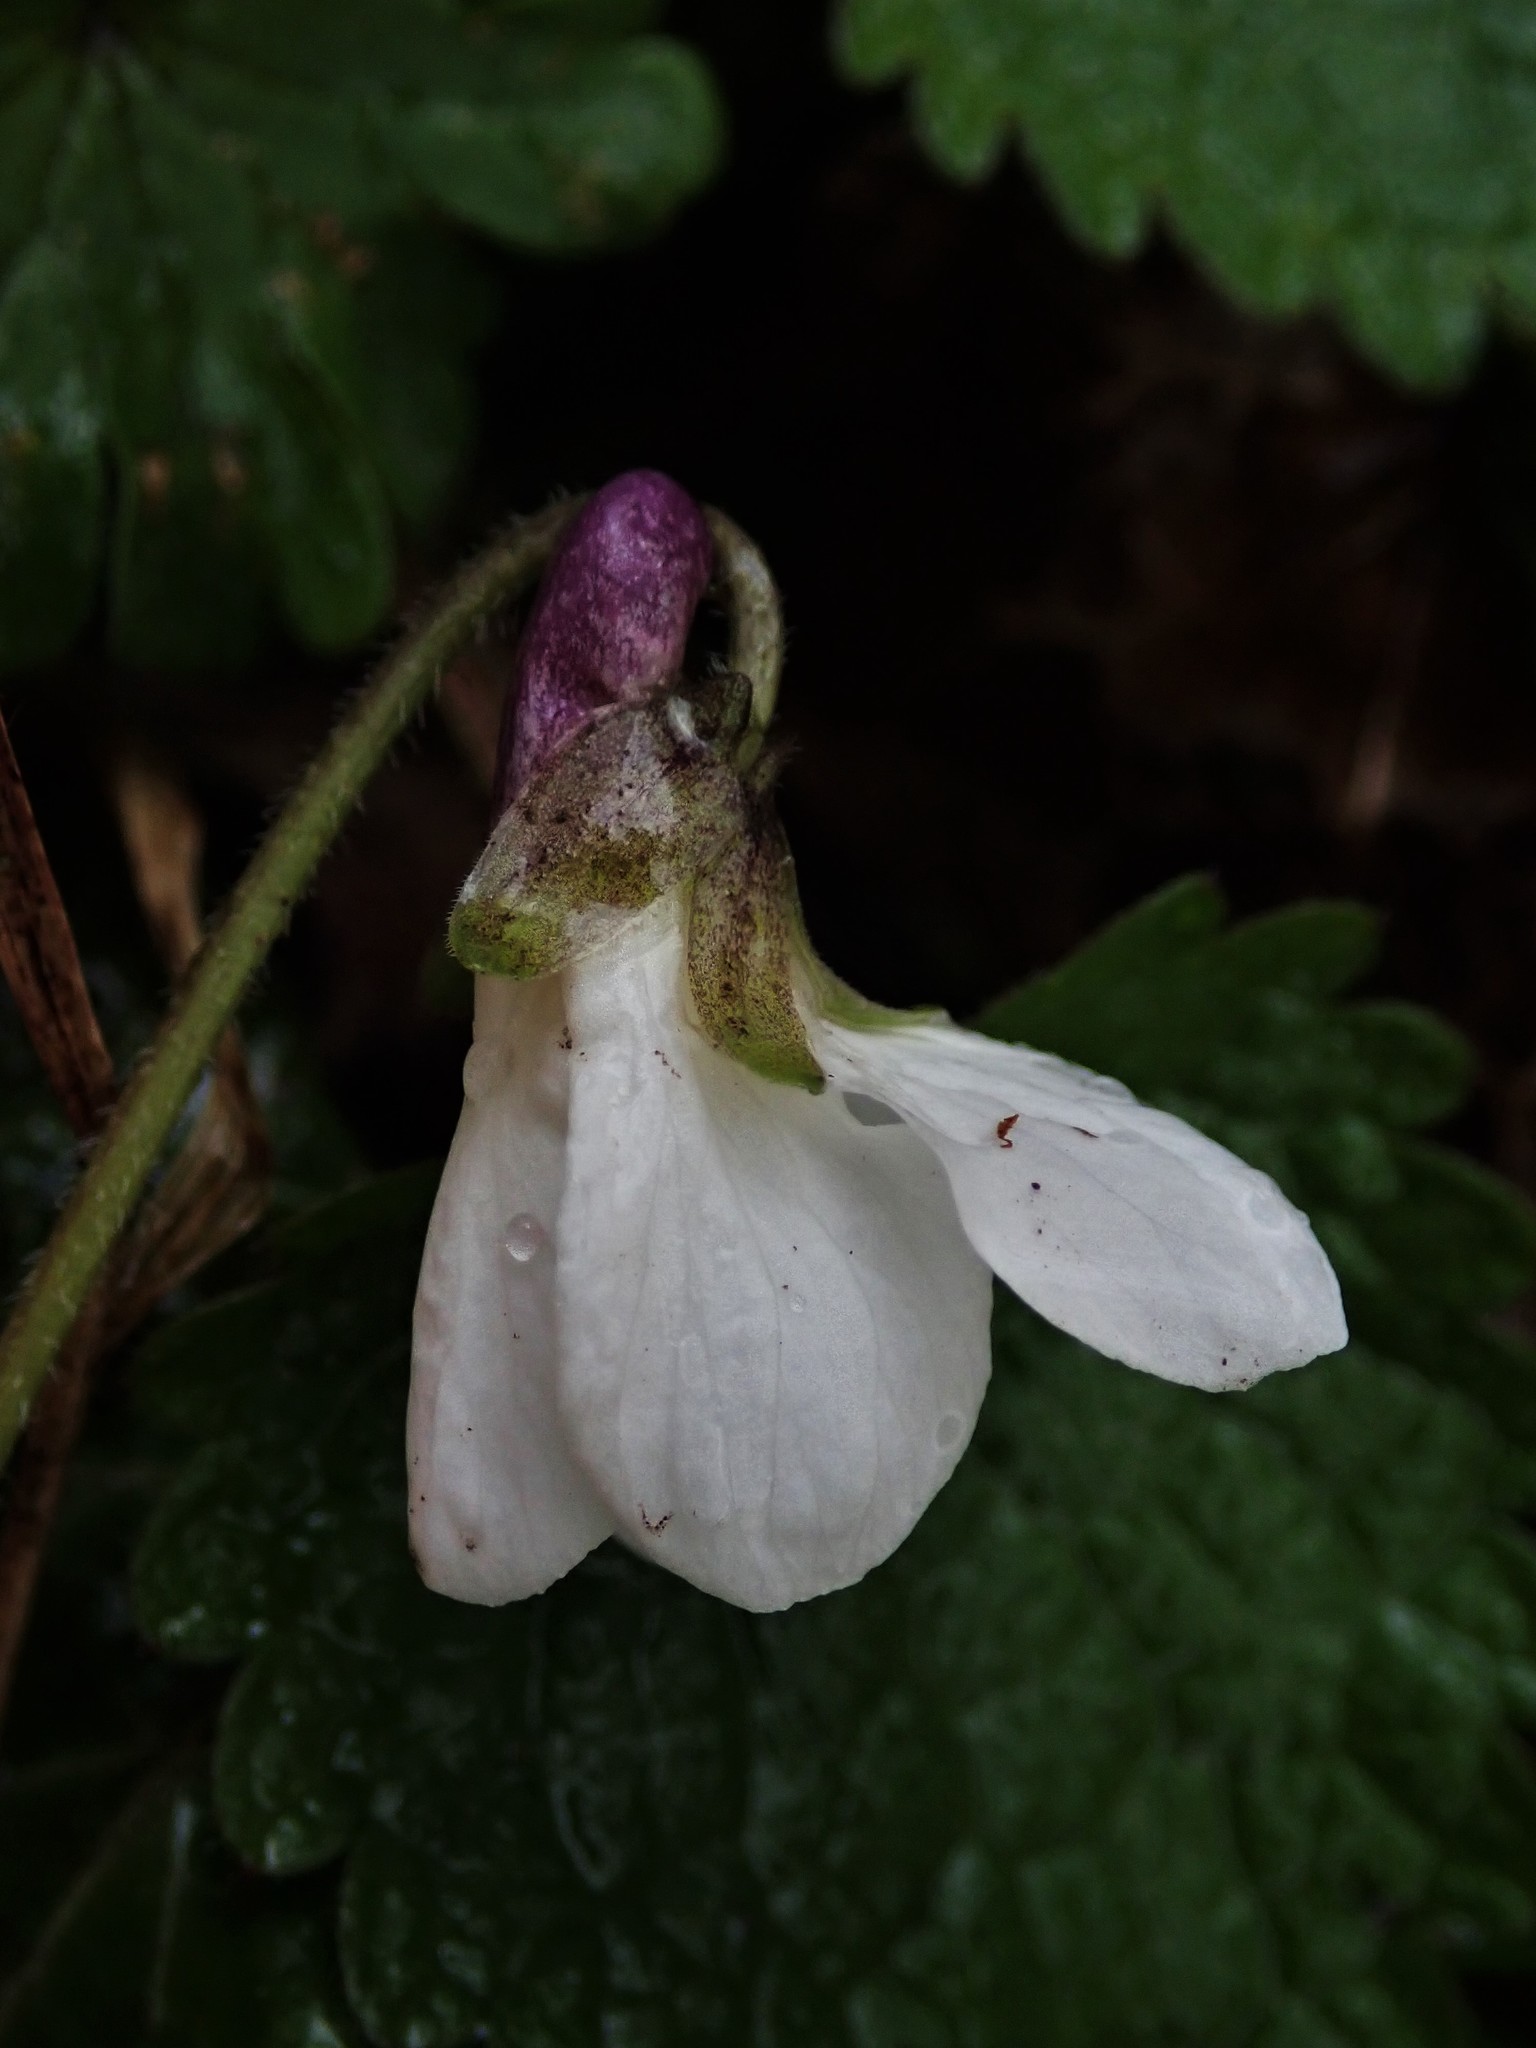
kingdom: Plantae
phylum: Tracheophyta
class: Magnoliopsida
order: Malpighiales
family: Violaceae
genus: Viola
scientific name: Viola odorata
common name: Sweet violet
